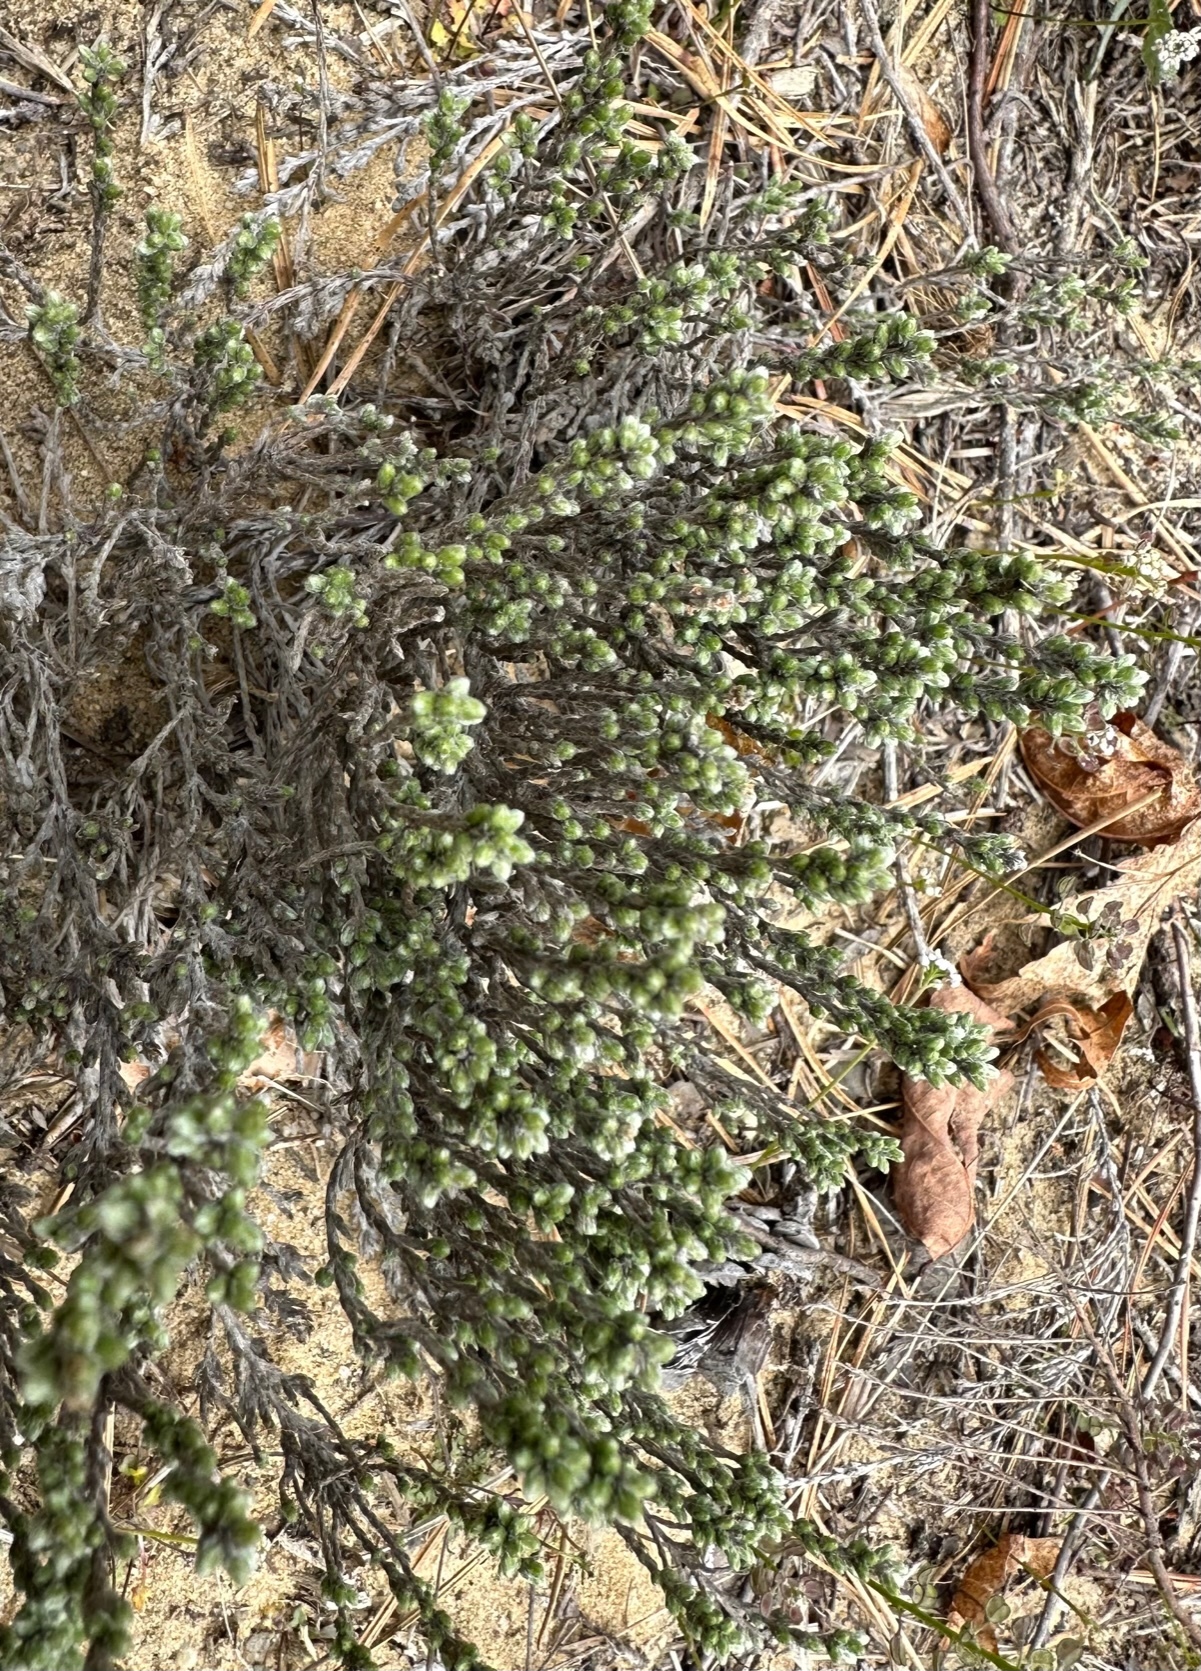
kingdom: Plantae
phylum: Tracheophyta
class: Magnoliopsida
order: Malvales
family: Cistaceae
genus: Hudsonia
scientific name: Hudsonia tomentosa
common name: Beach-heath
